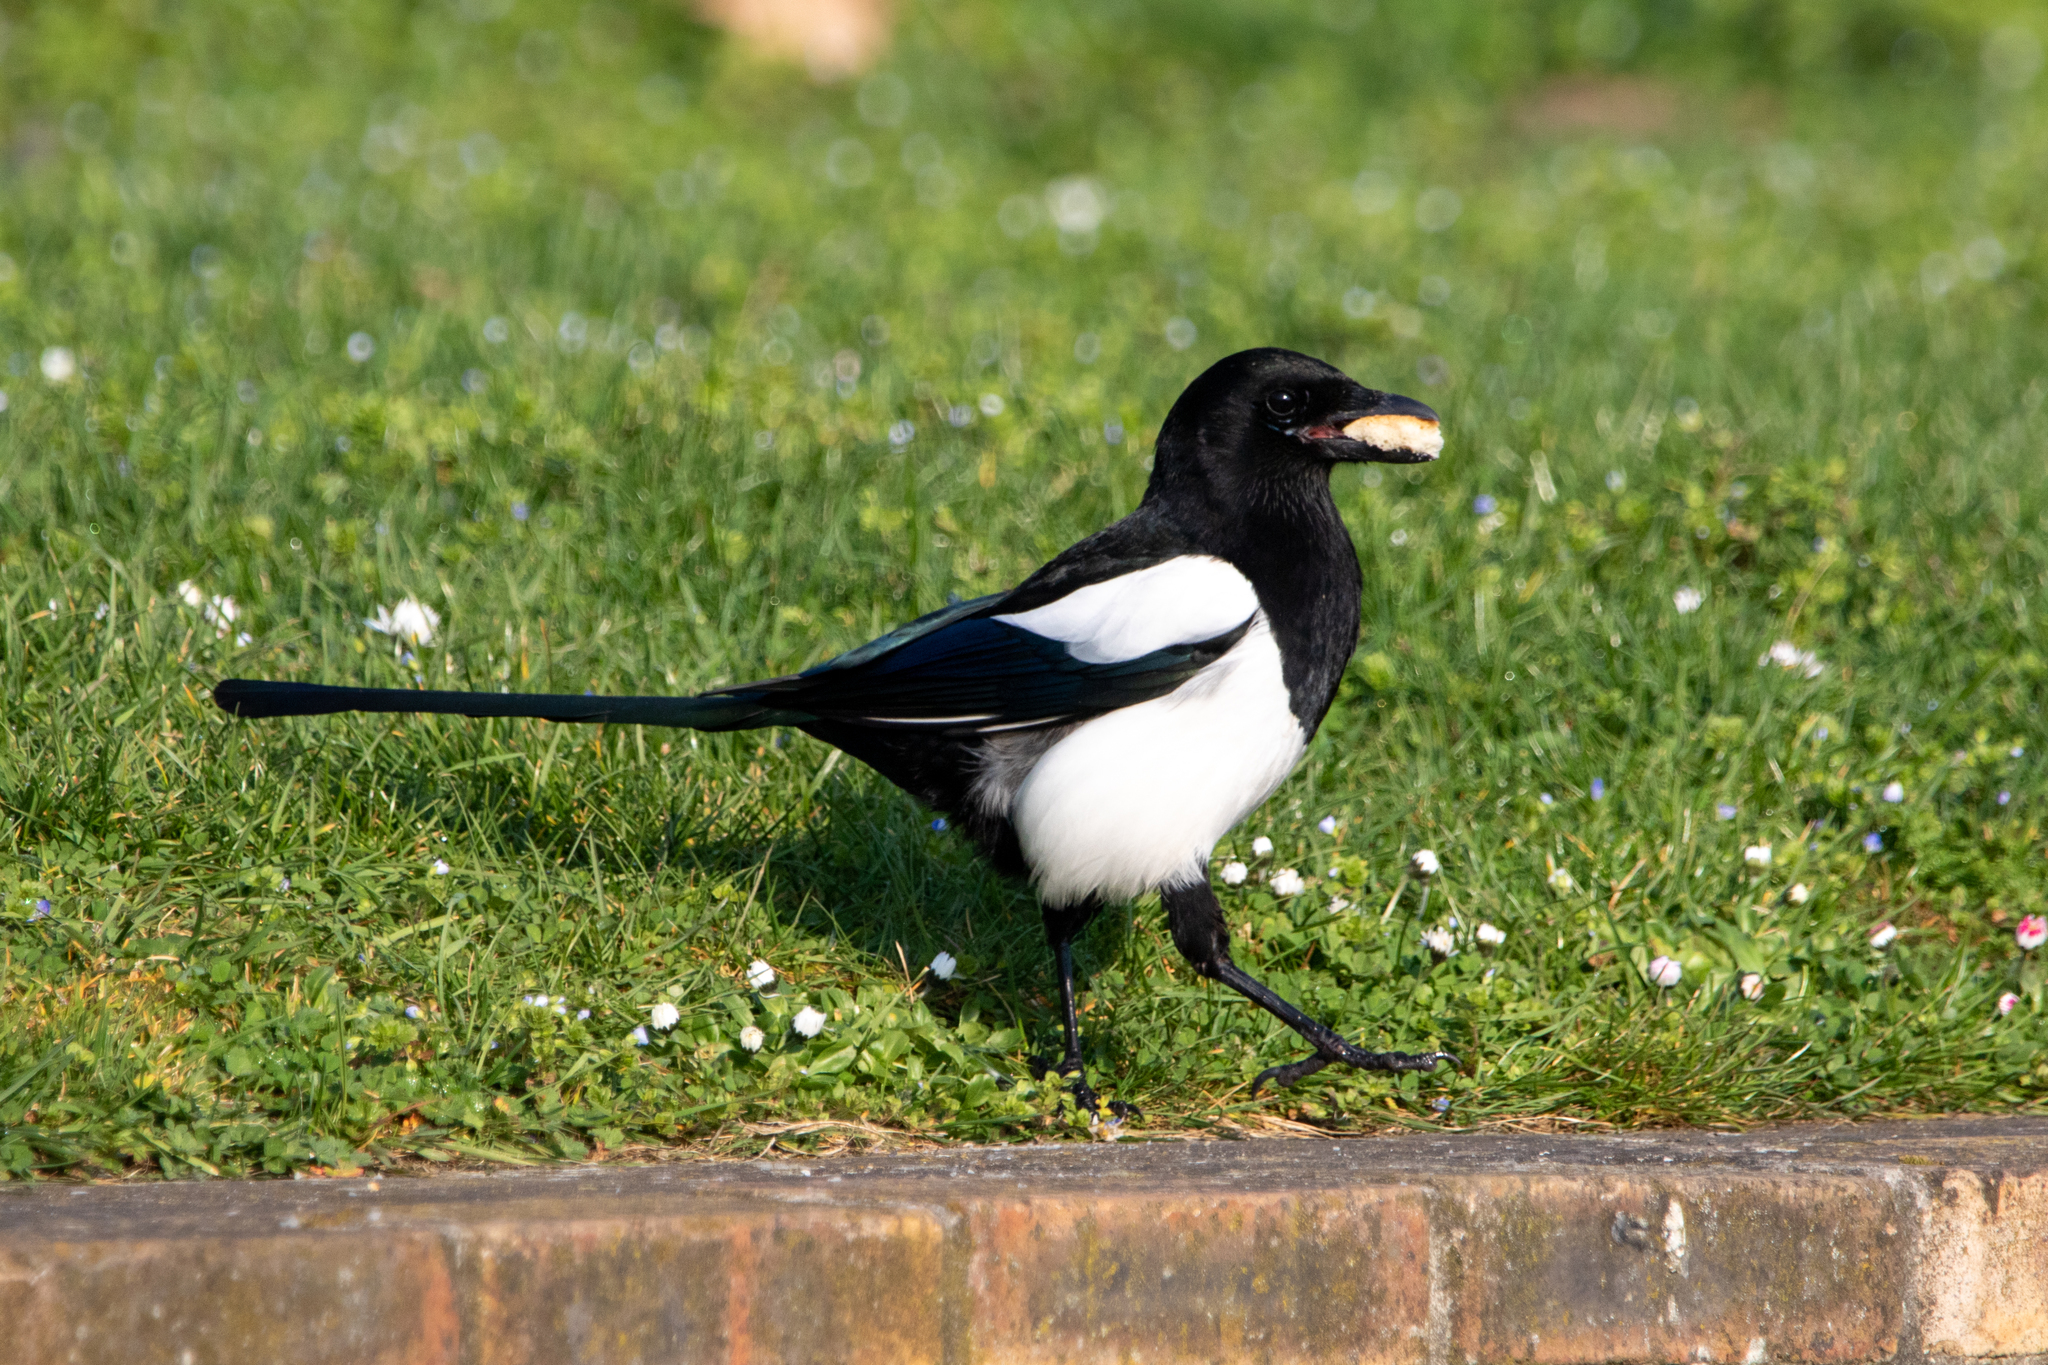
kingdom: Animalia
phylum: Chordata
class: Aves
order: Passeriformes
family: Corvidae
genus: Pica
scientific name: Pica pica
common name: Eurasian magpie
